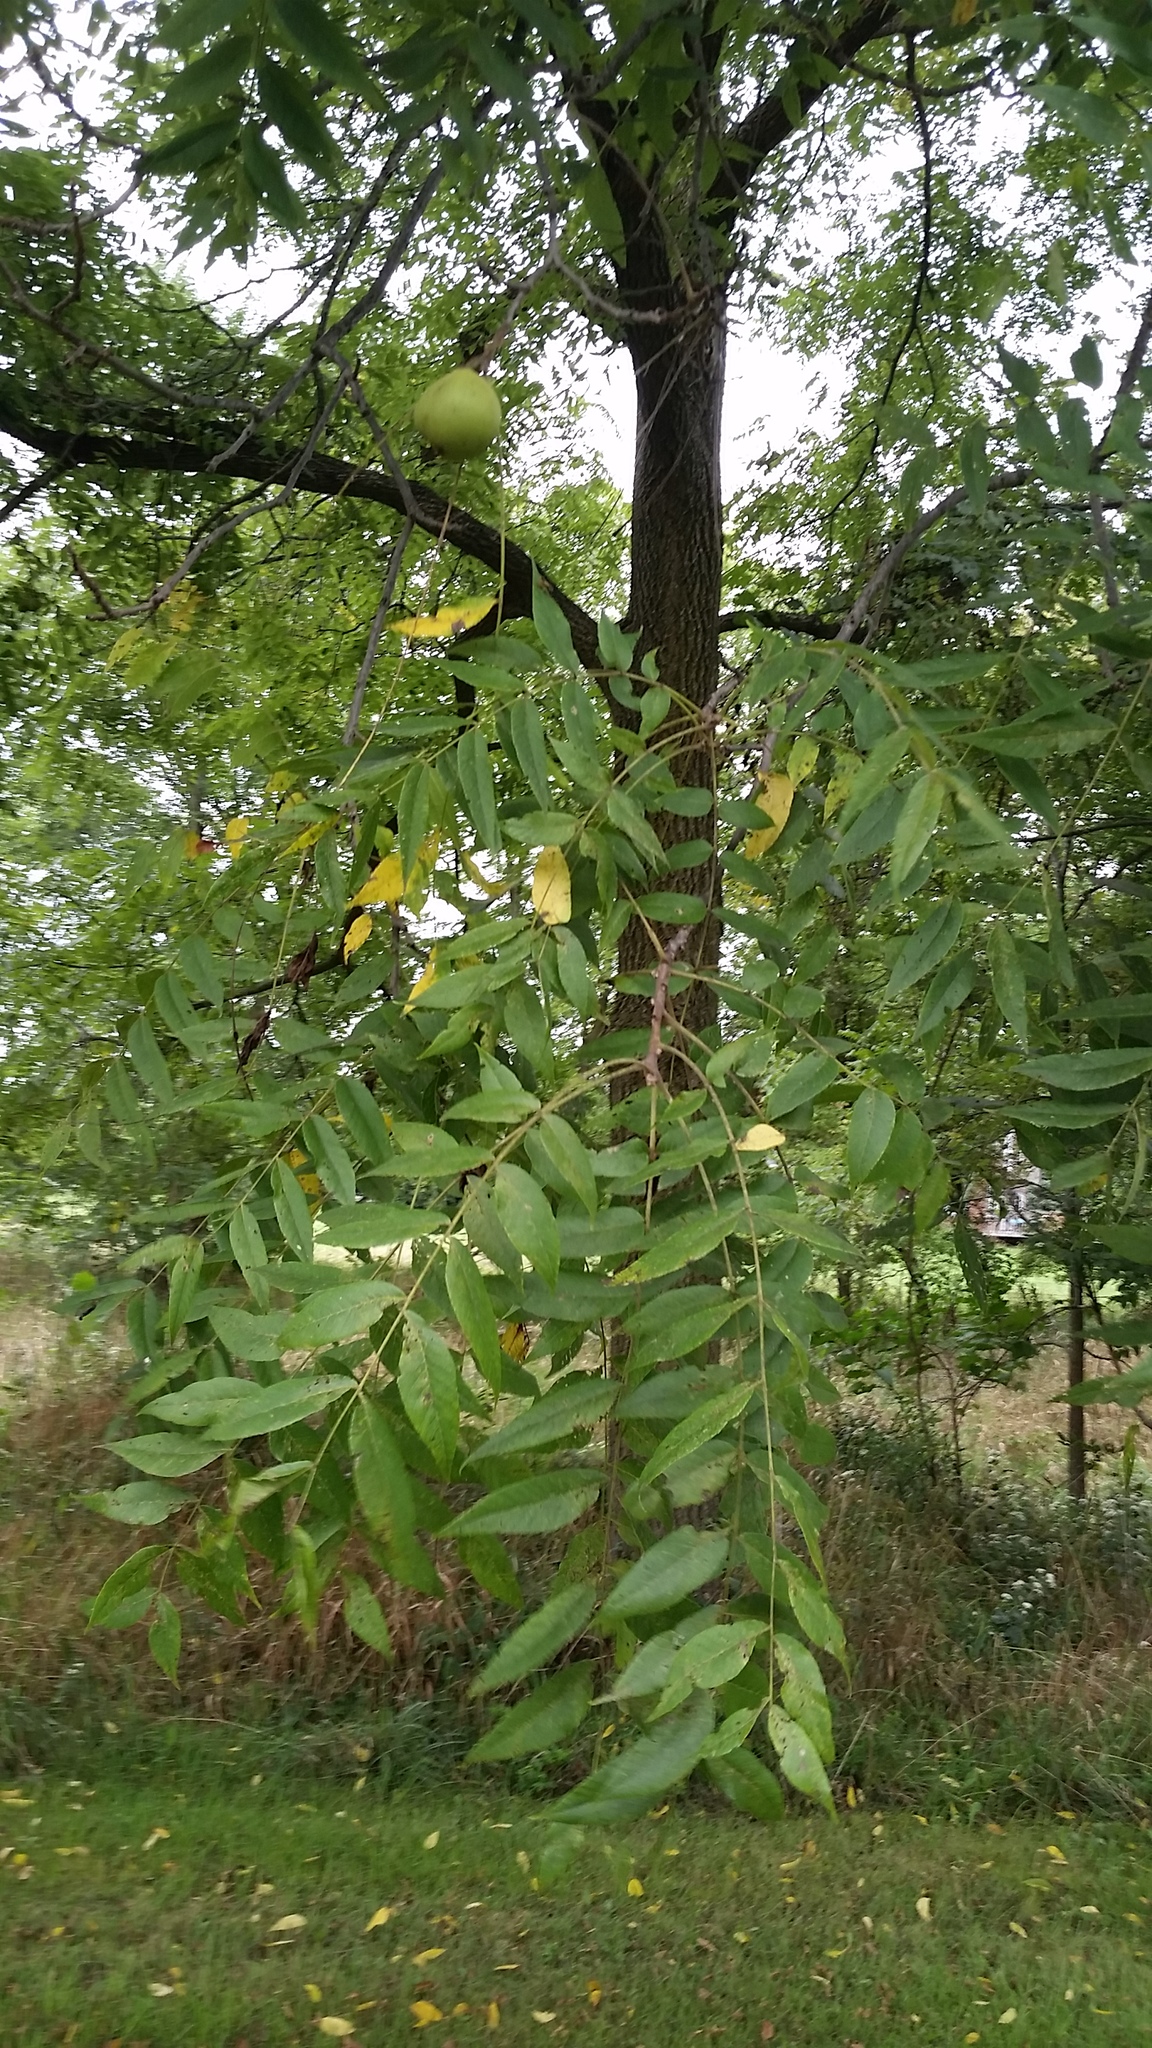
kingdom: Plantae
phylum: Tracheophyta
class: Magnoliopsida
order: Fagales
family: Juglandaceae
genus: Juglans
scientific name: Juglans nigra
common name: Black walnut
